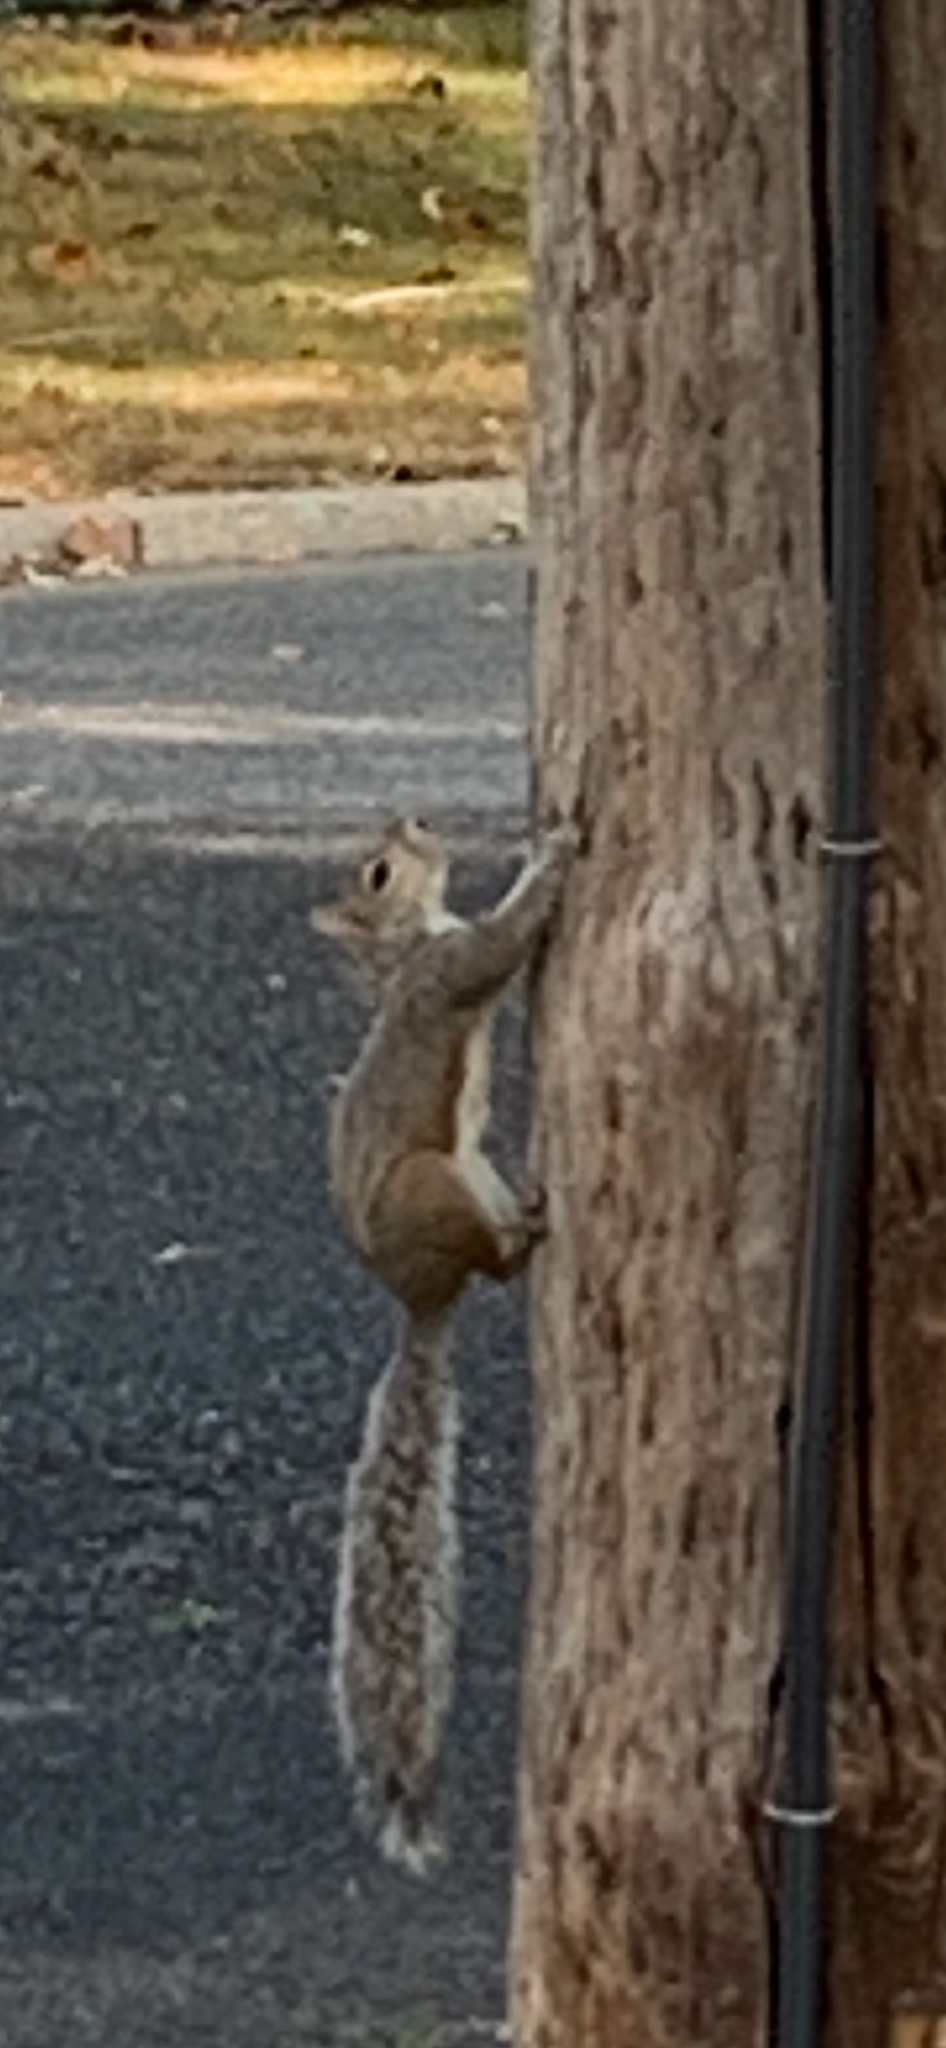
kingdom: Animalia
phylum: Chordata
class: Mammalia
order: Rodentia
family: Sciuridae
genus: Sciurus
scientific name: Sciurus carolinensis
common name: Eastern gray squirrel
